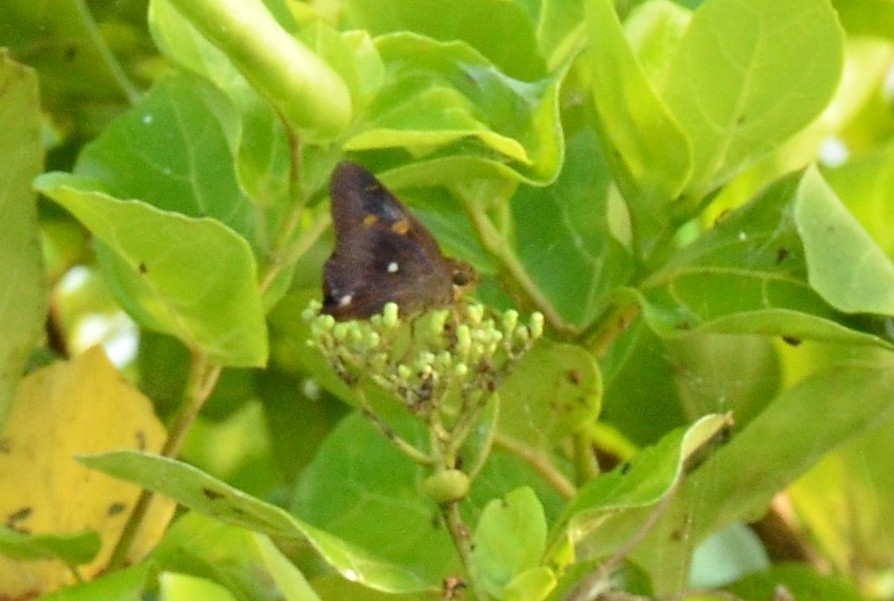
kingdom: Animalia
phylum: Arthropoda
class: Insecta
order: Lepidoptera
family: Hesperiidae
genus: Hasora
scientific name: Hasora badra
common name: Common awl
